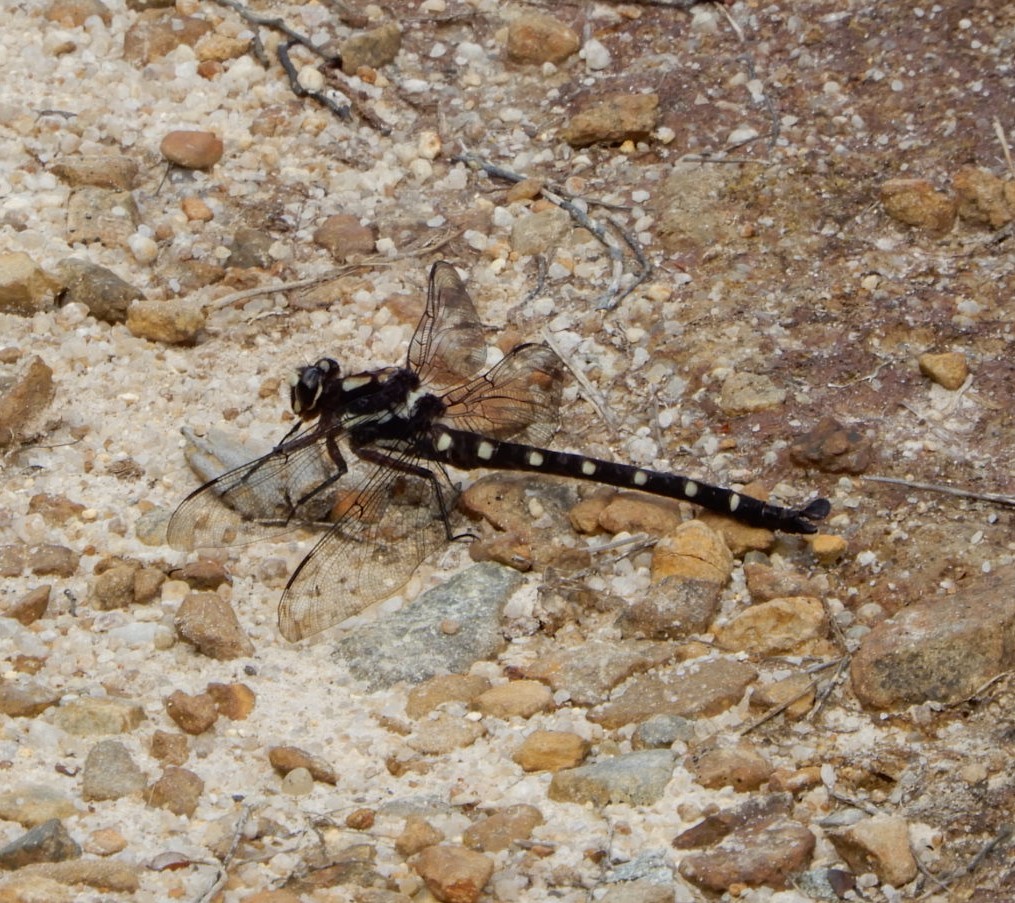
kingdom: Animalia
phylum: Arthropoda
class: Insecta
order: Odonata
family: Petaluridae
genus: Uropetala
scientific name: Uropetala carovei
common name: Bush giant dragonfly
